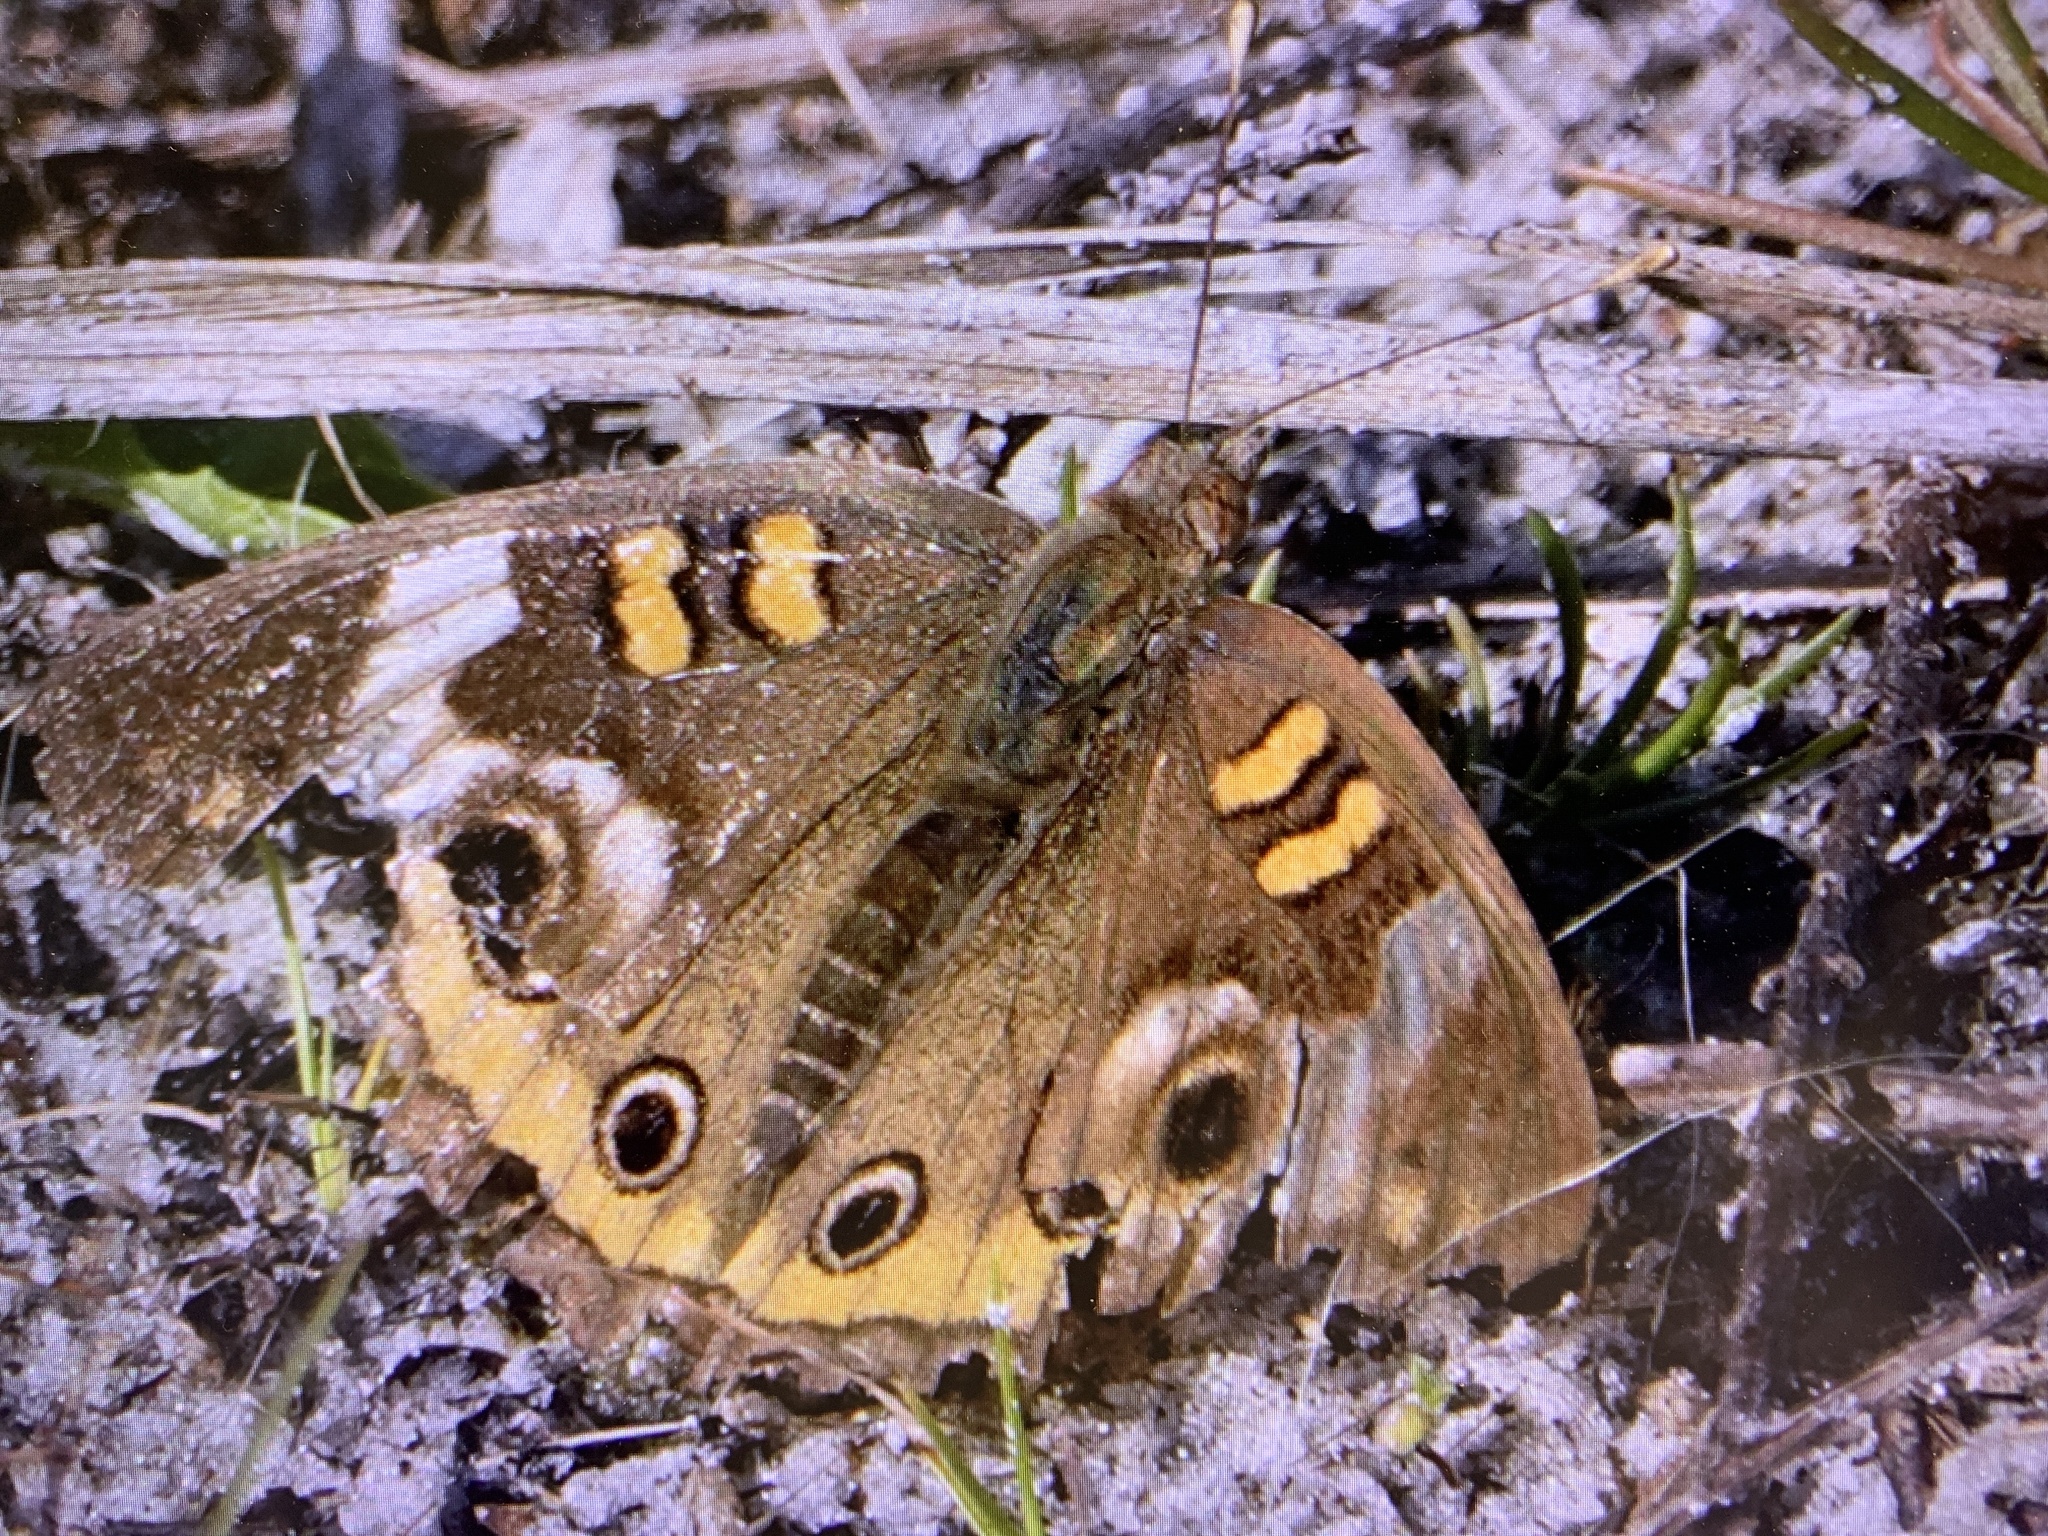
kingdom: Animalia
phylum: Arthropoda
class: Insecta
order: Lepidoptera
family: Nymphalidae
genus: Junonia
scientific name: Junonia coenia
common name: Common buckeye
